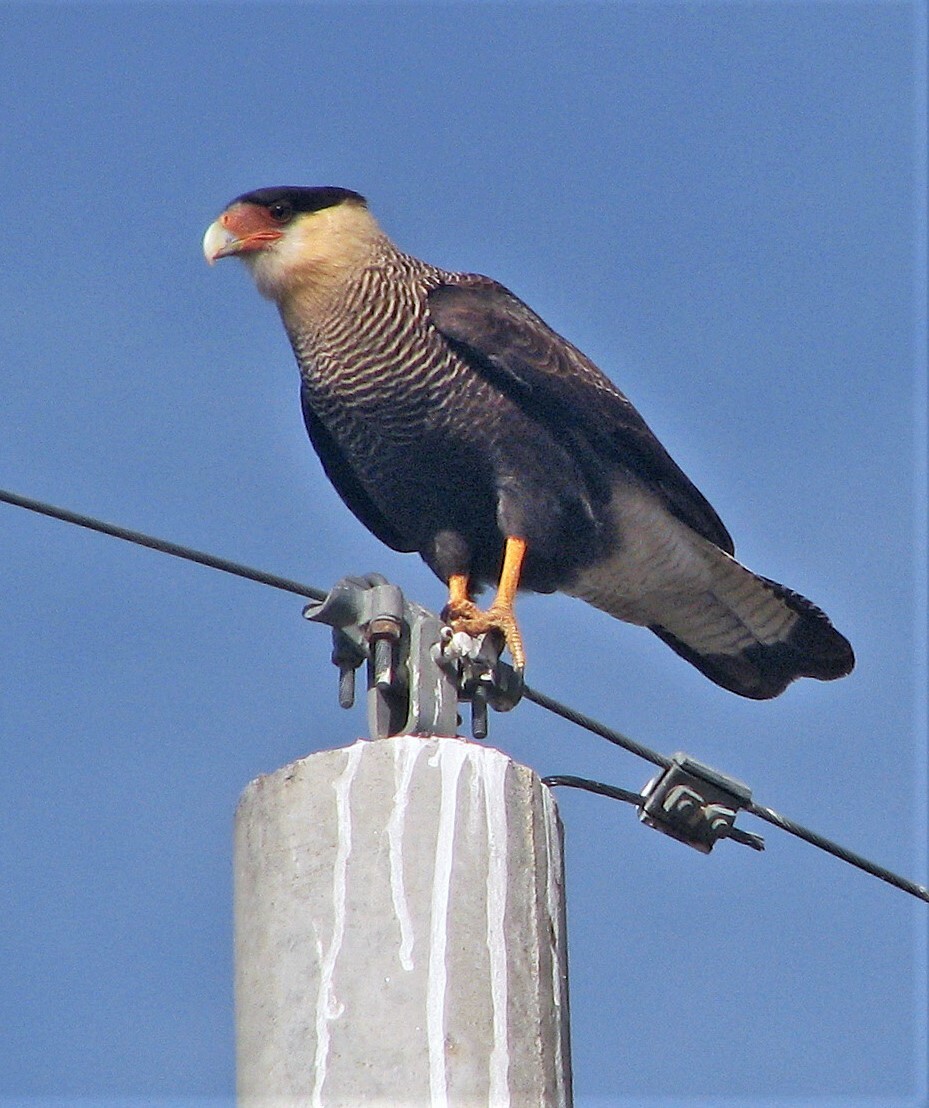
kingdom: Animalia
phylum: Chordata
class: Aves
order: Falconiformes
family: Falconidae
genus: Caracara
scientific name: Caracara plancus
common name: Southern caracara
